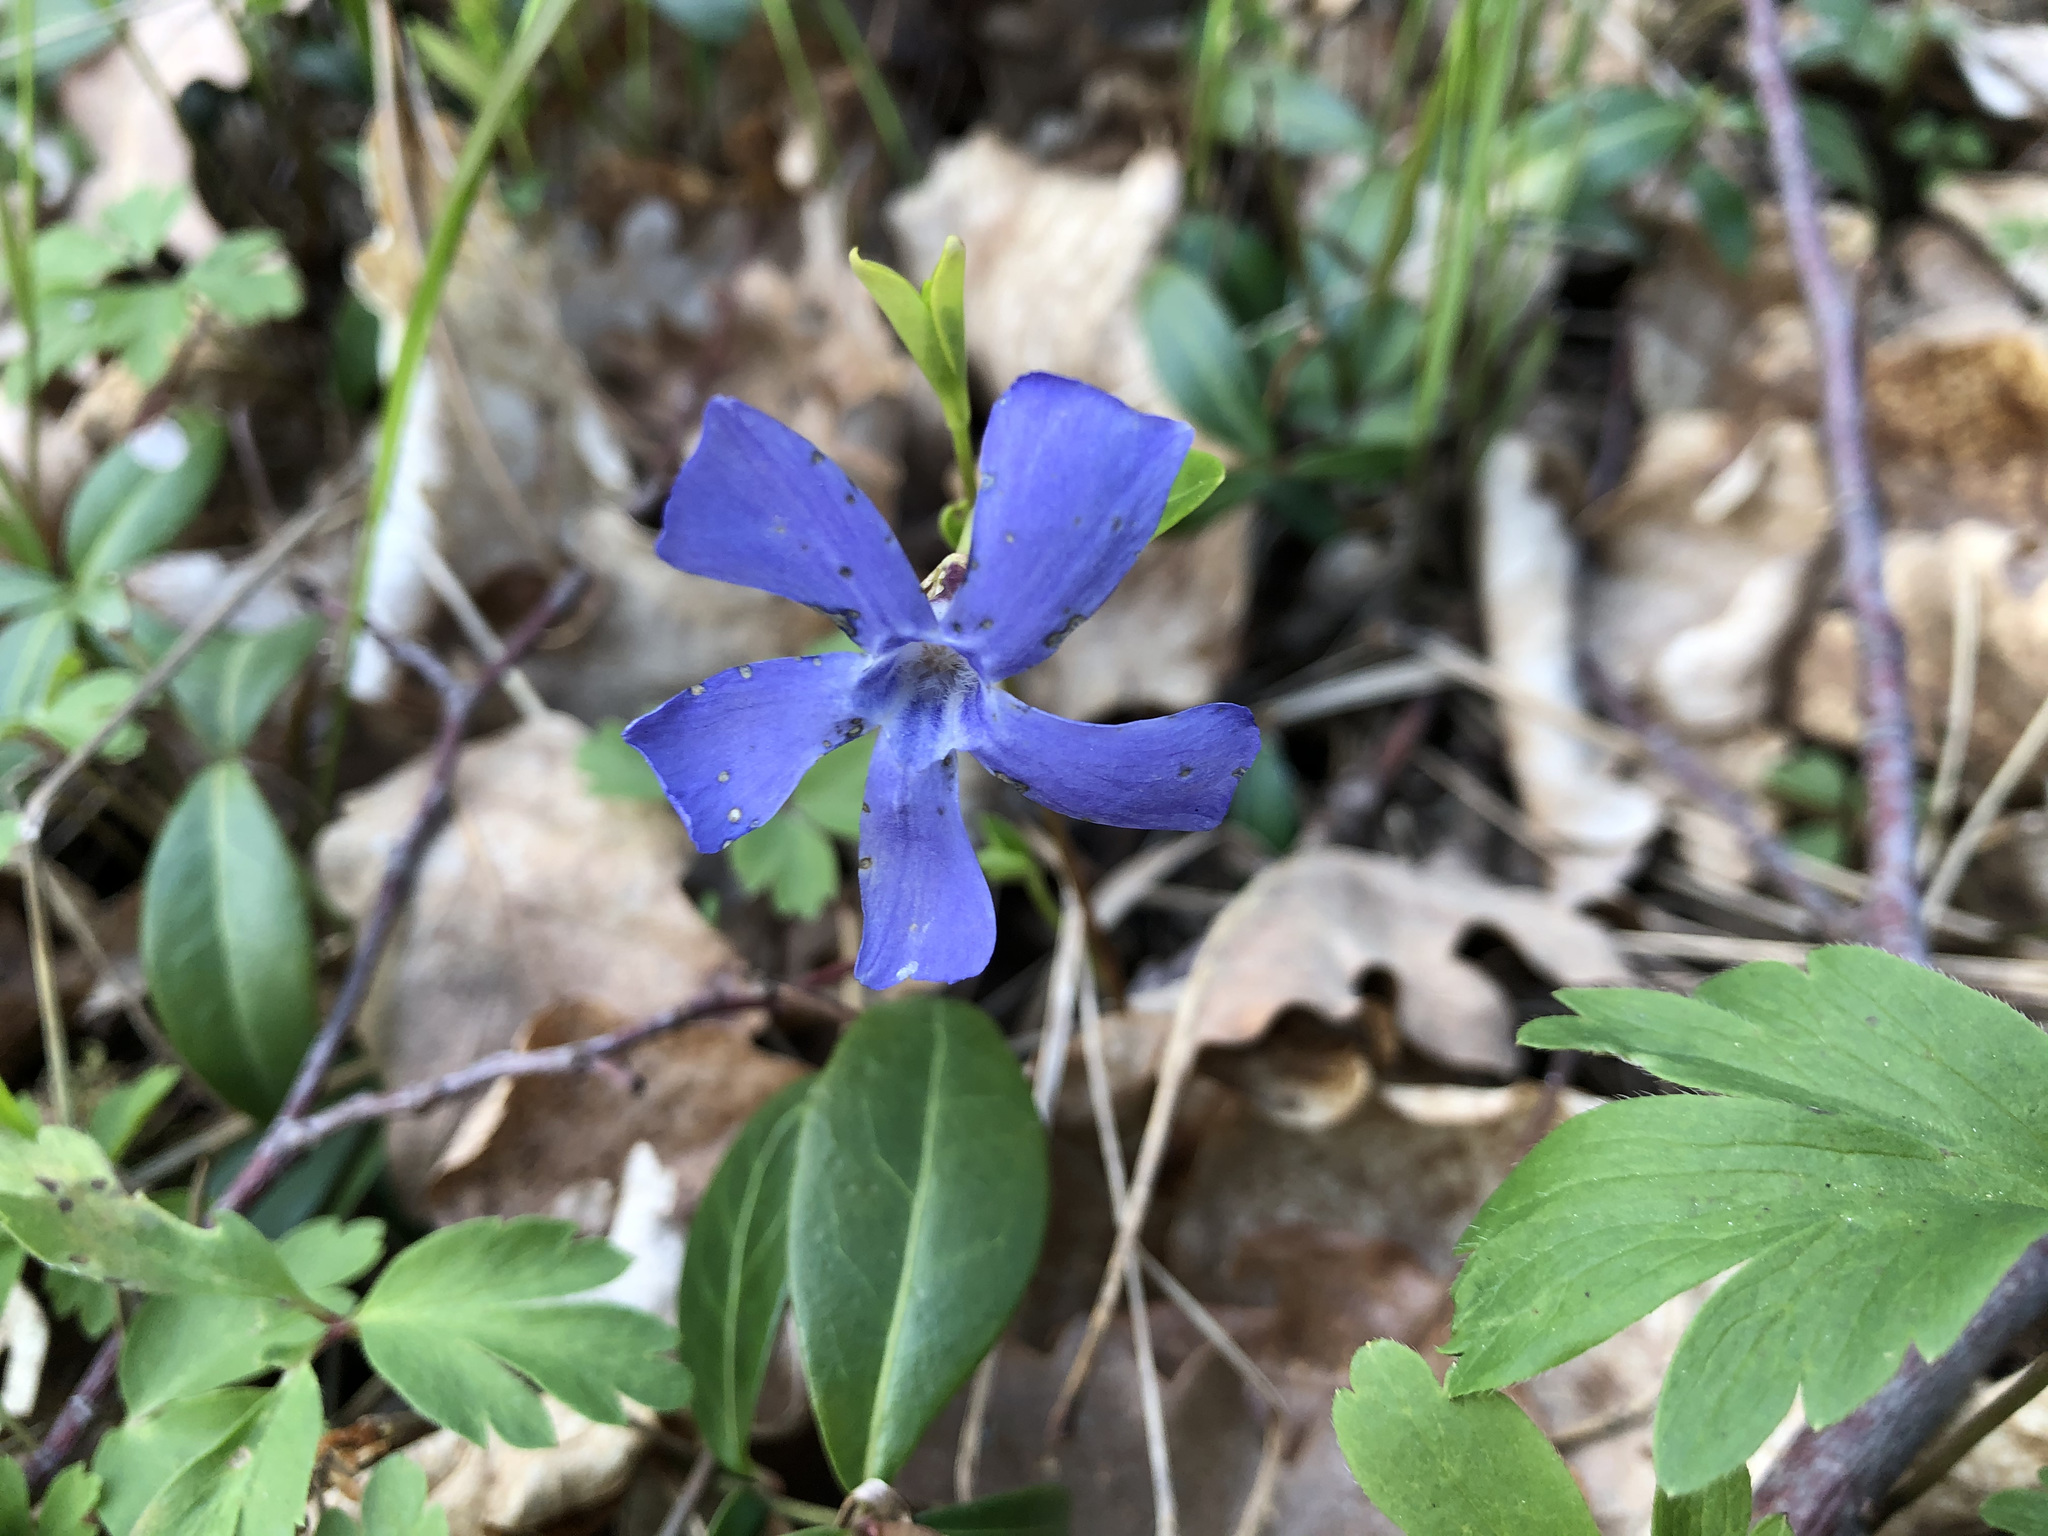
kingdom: Plantae
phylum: Tracheophyta
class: Magnoliopsida
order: Gentianales
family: Apocynaceae
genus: Vinca
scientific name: Vinca minor
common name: Lesser periwinkle
